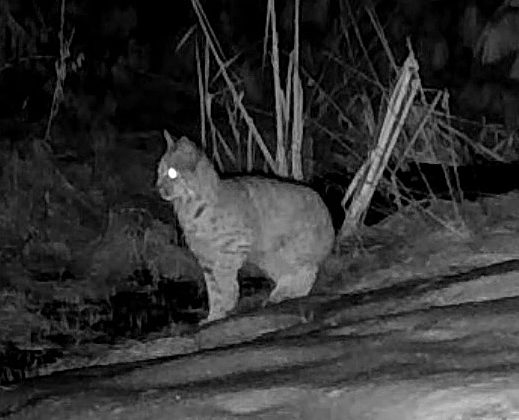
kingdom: Animalia
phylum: Chordata
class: Mammalia
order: Carnivora
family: Felidae
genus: Lynx
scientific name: Lynx rufus
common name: Bobcat
